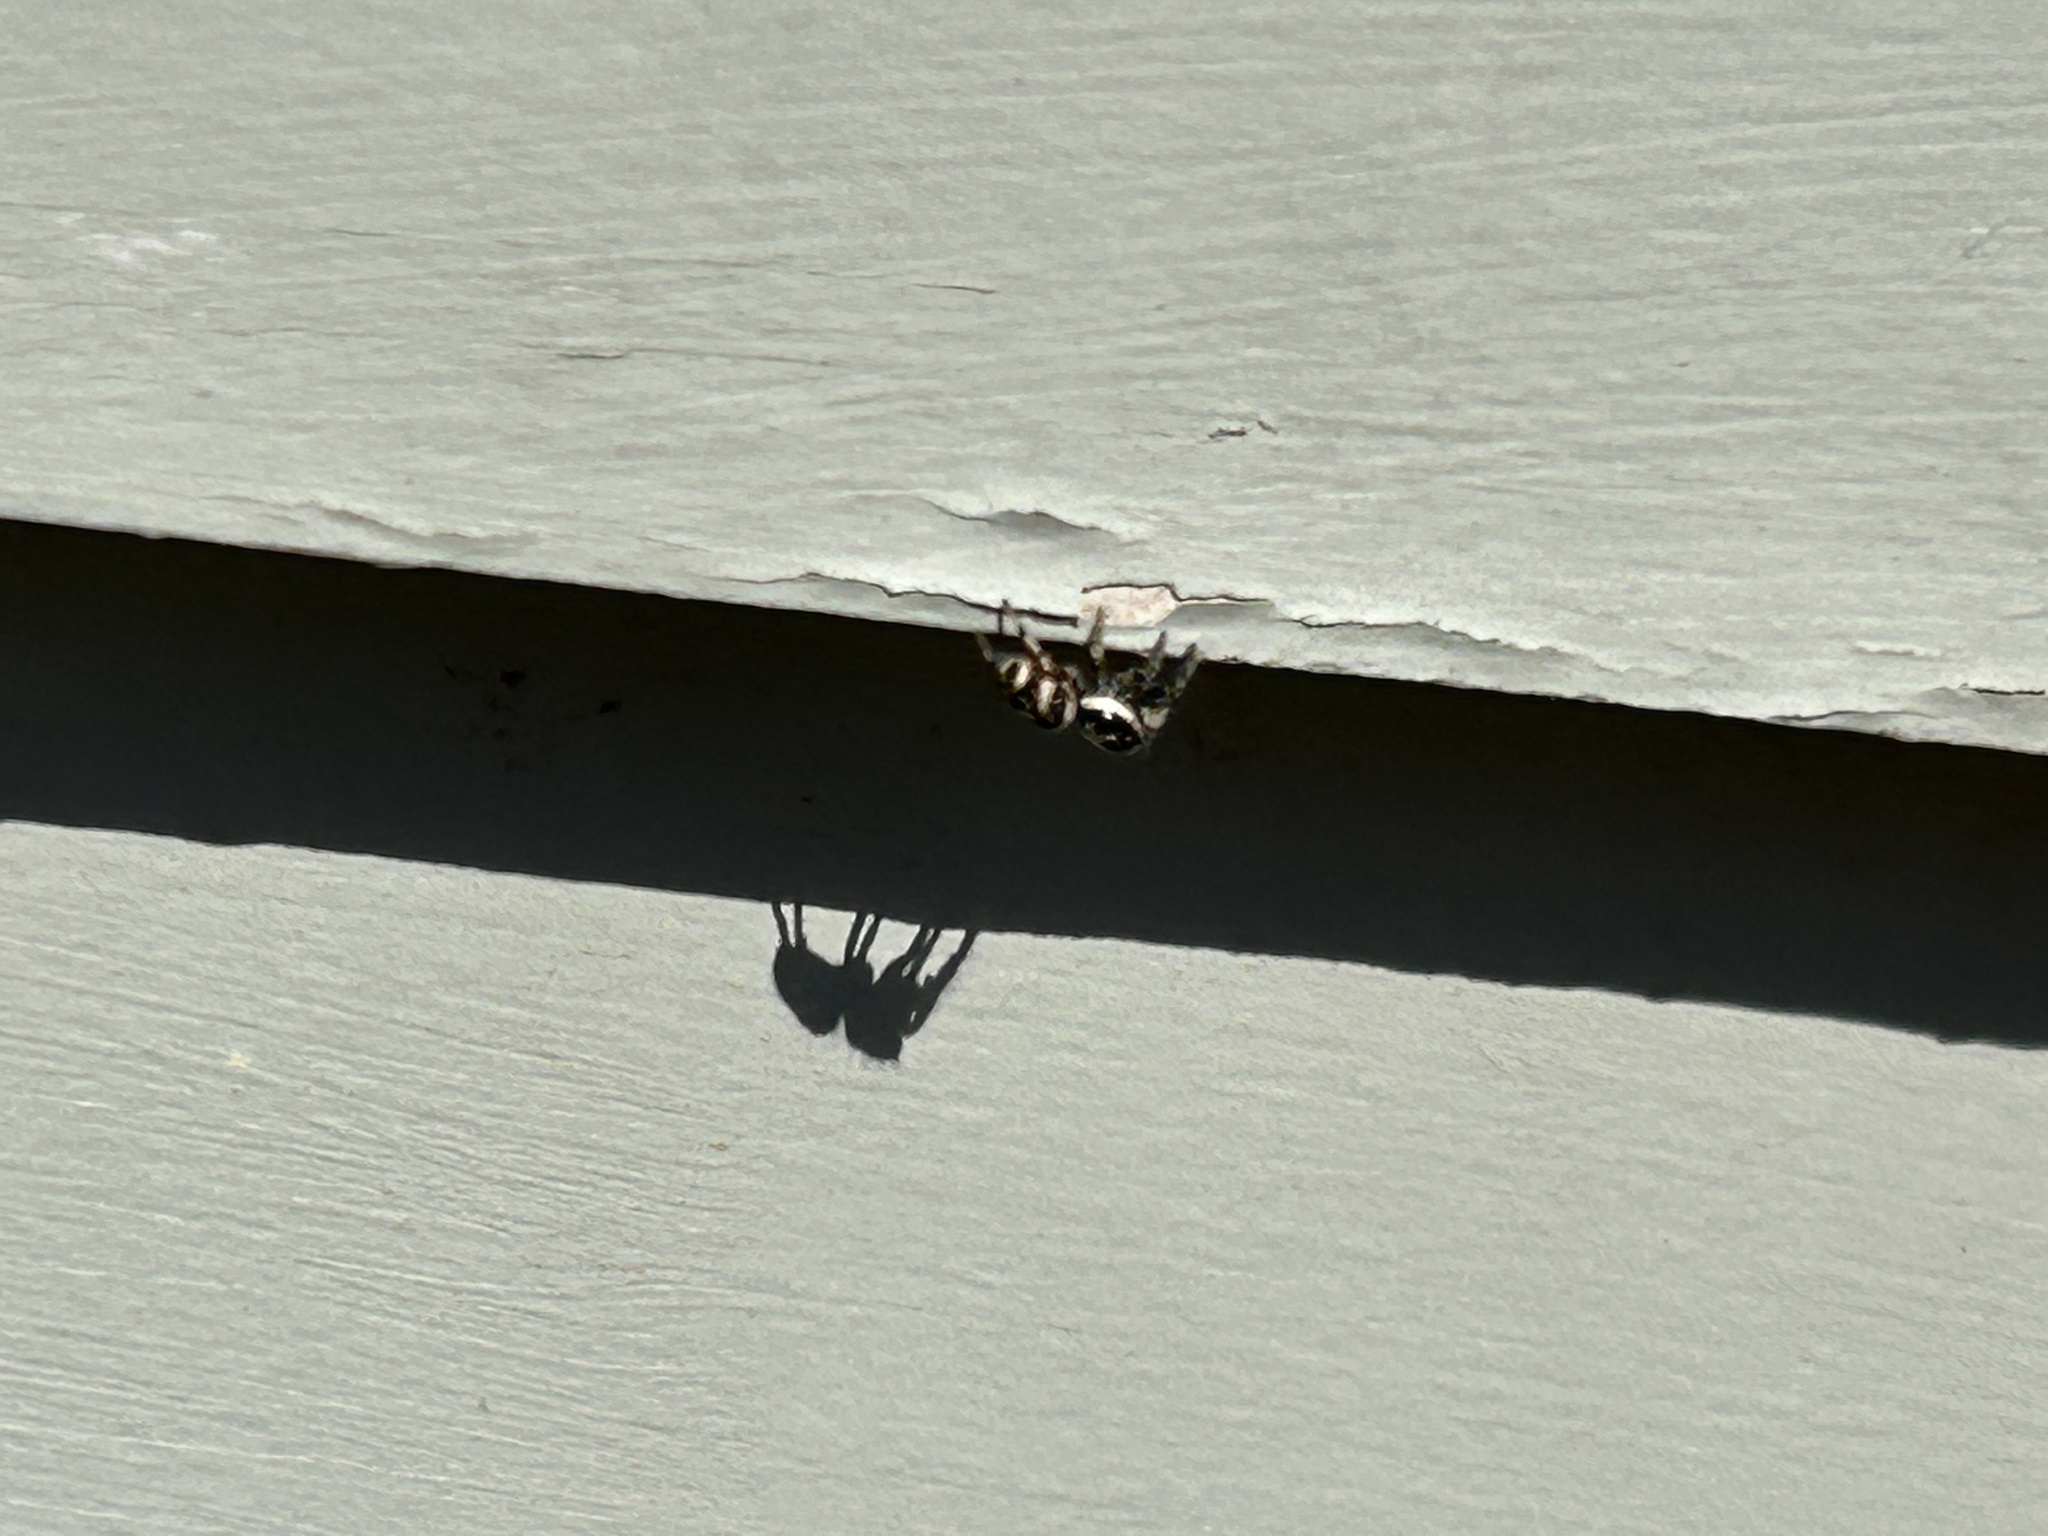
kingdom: Animalia
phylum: Arthropoda
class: Arachnida
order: Araneae
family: Salticidae
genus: Salticus
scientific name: Salticus scenicus
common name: Zebra jumper
